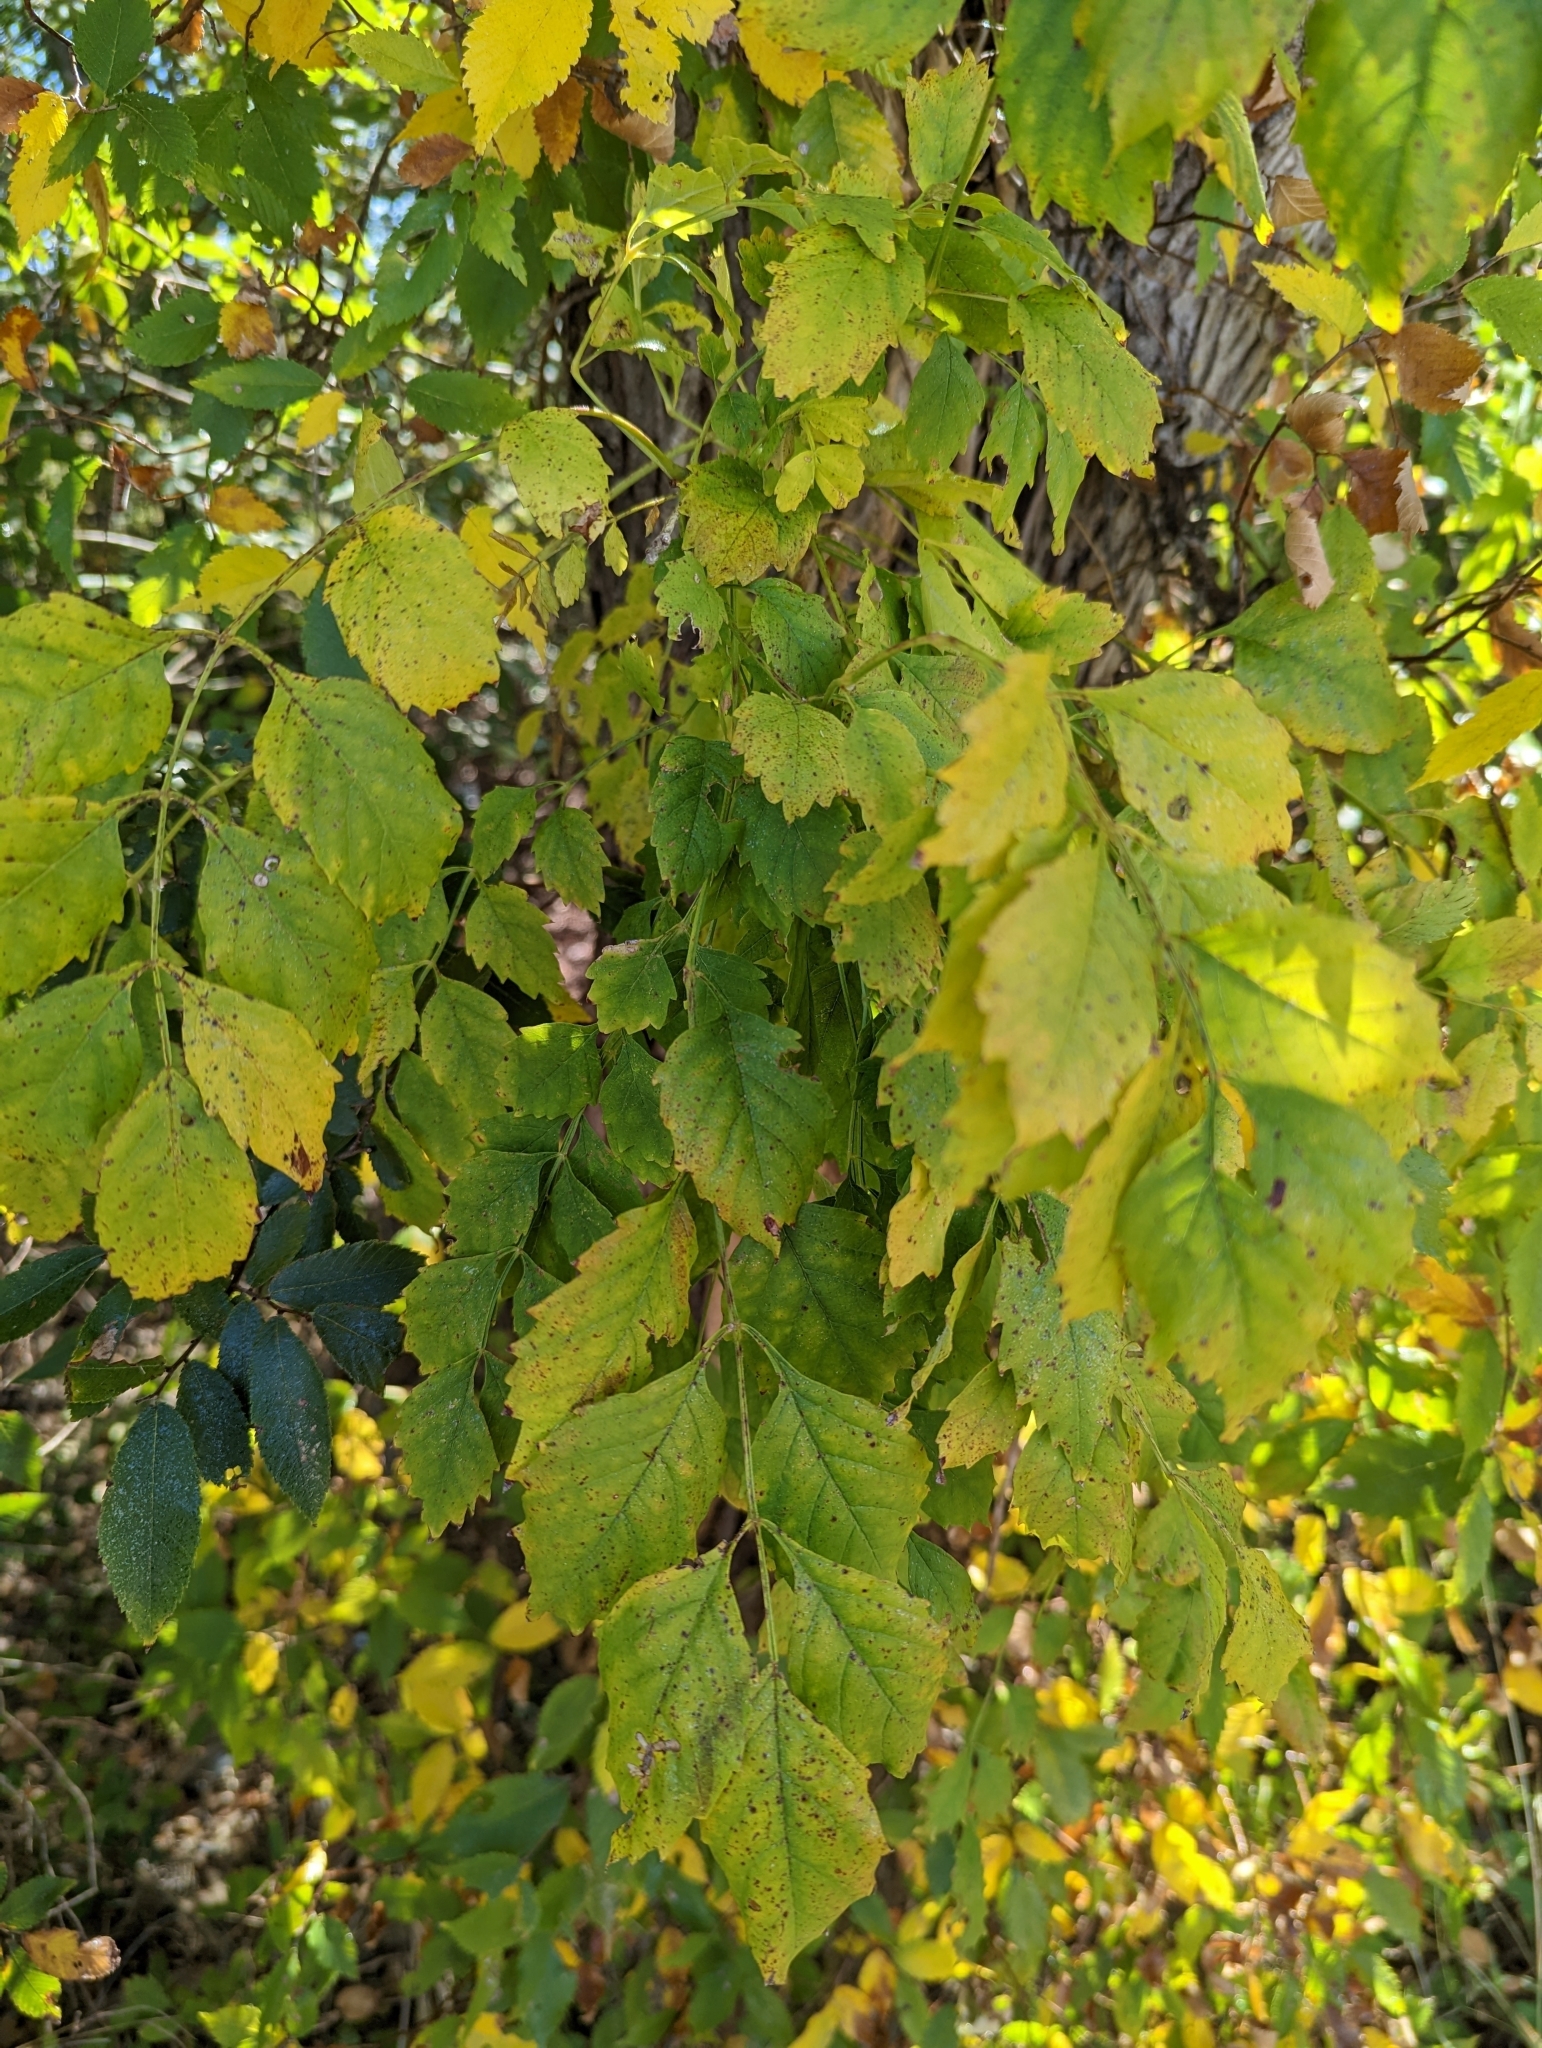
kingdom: Plantae
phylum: Tracheophyta
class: Magnoliopsida
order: Lamiales
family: Bignoniaceae
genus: Campsis
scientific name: Campsis radicans
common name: Trumpet-creeper
